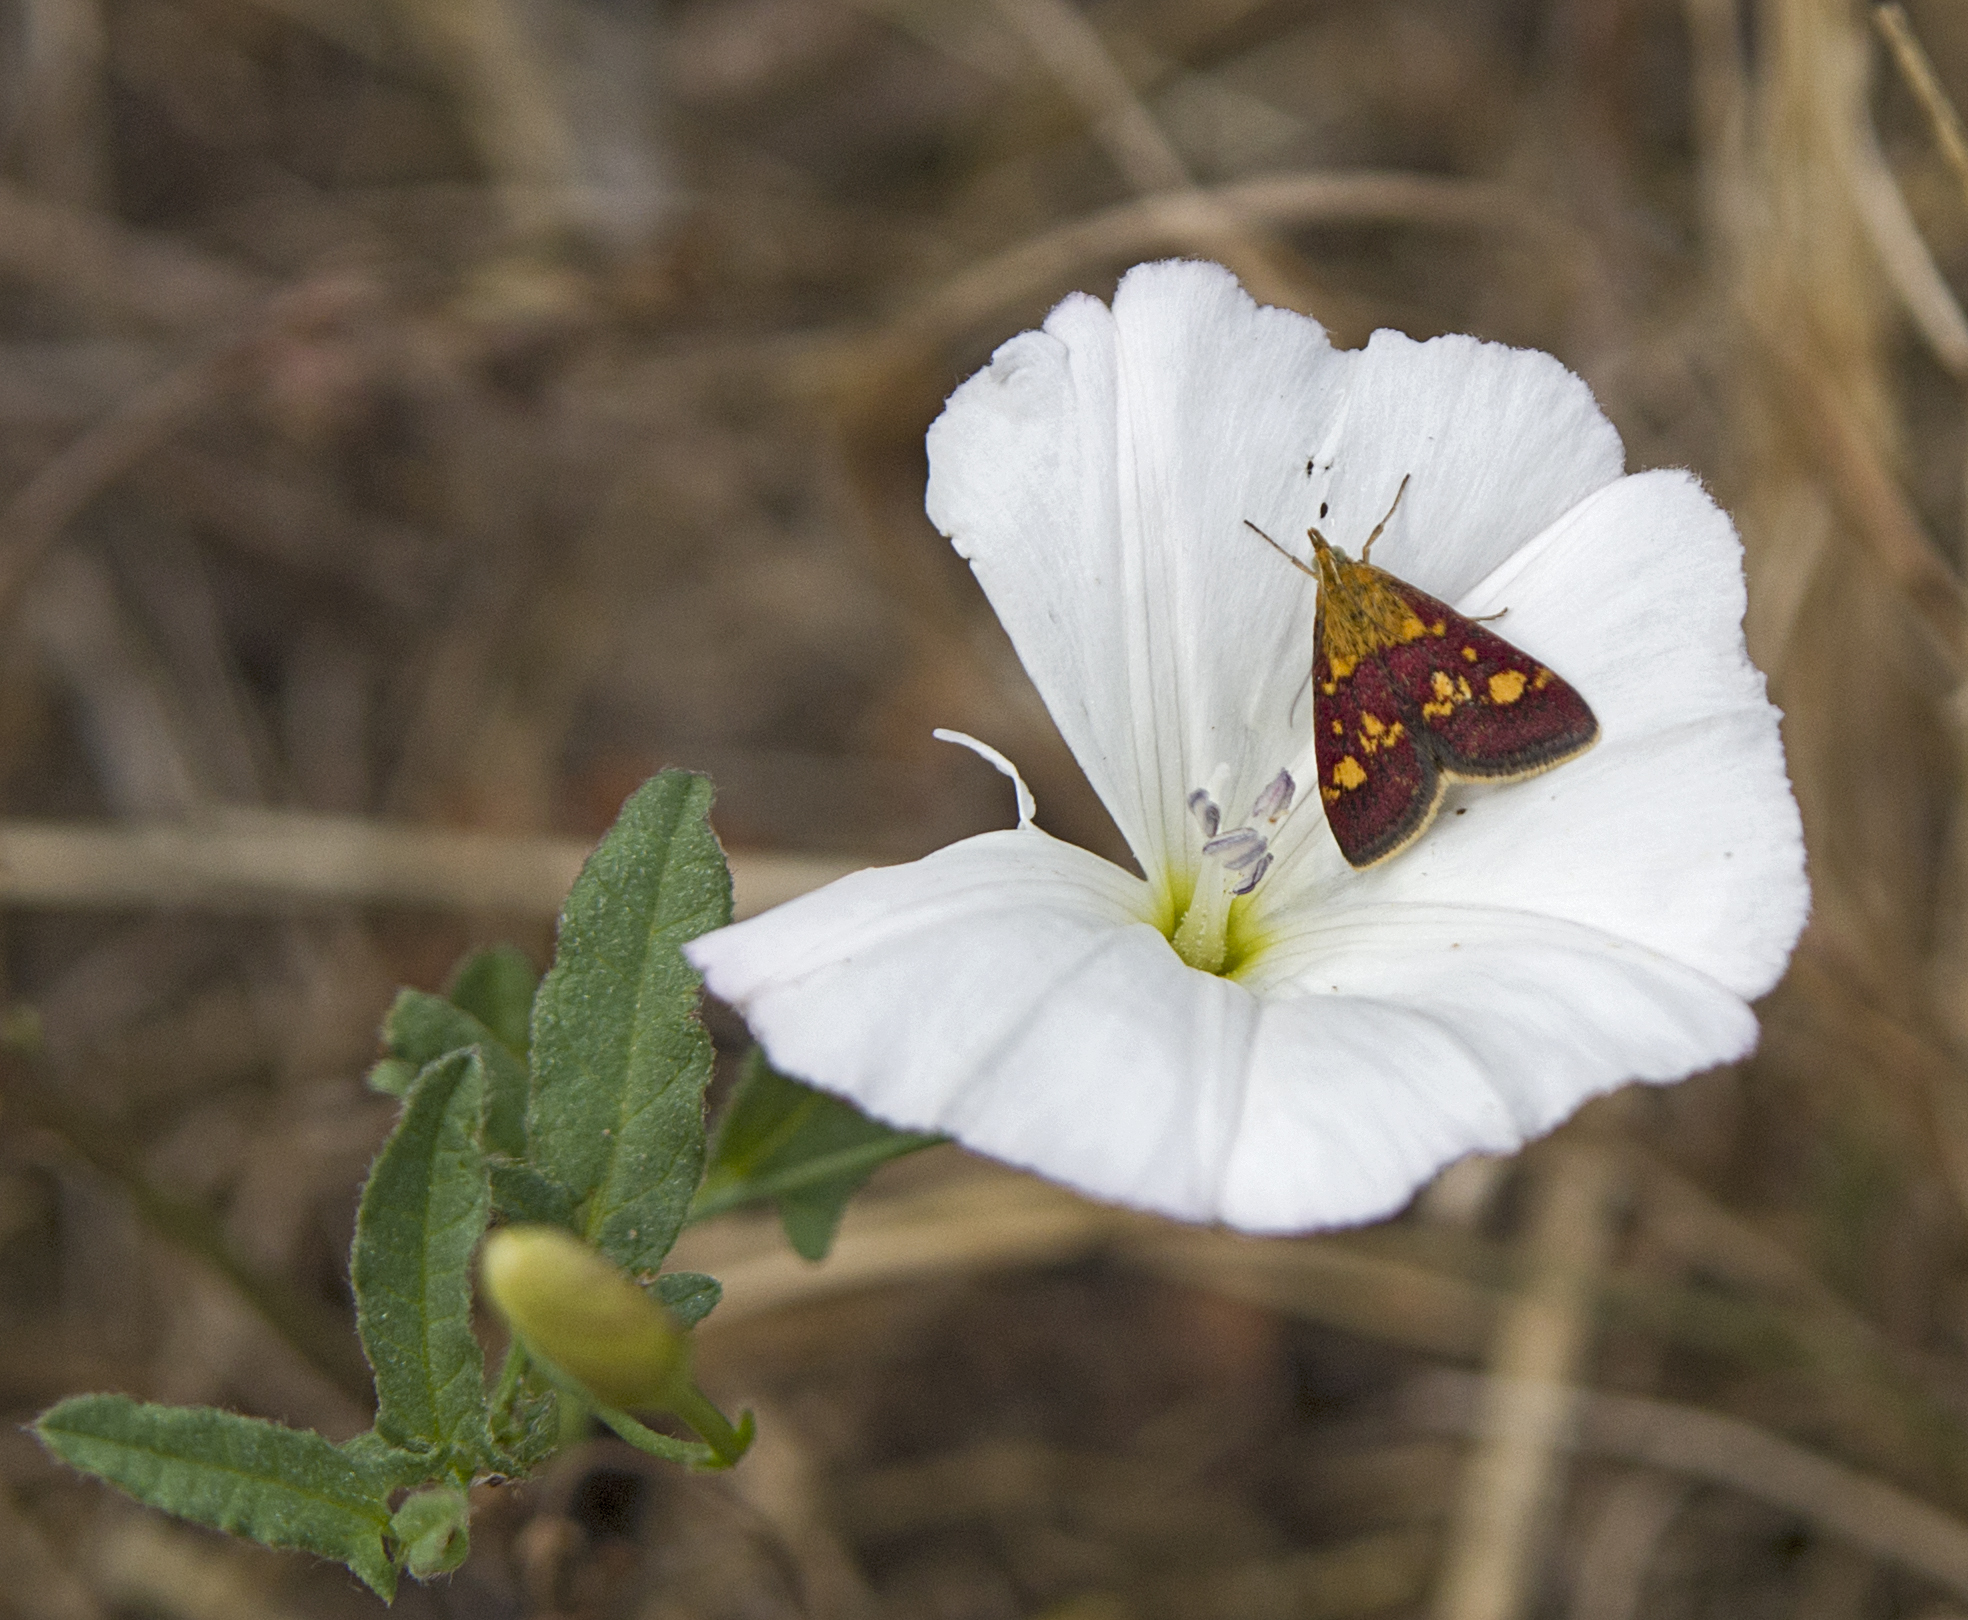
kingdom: Animalia
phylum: Arthropoda
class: Insecta
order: Lepidoptera
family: Crambidae
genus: Pyrausta
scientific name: Pyrausta aurata
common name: Small purple & gold
